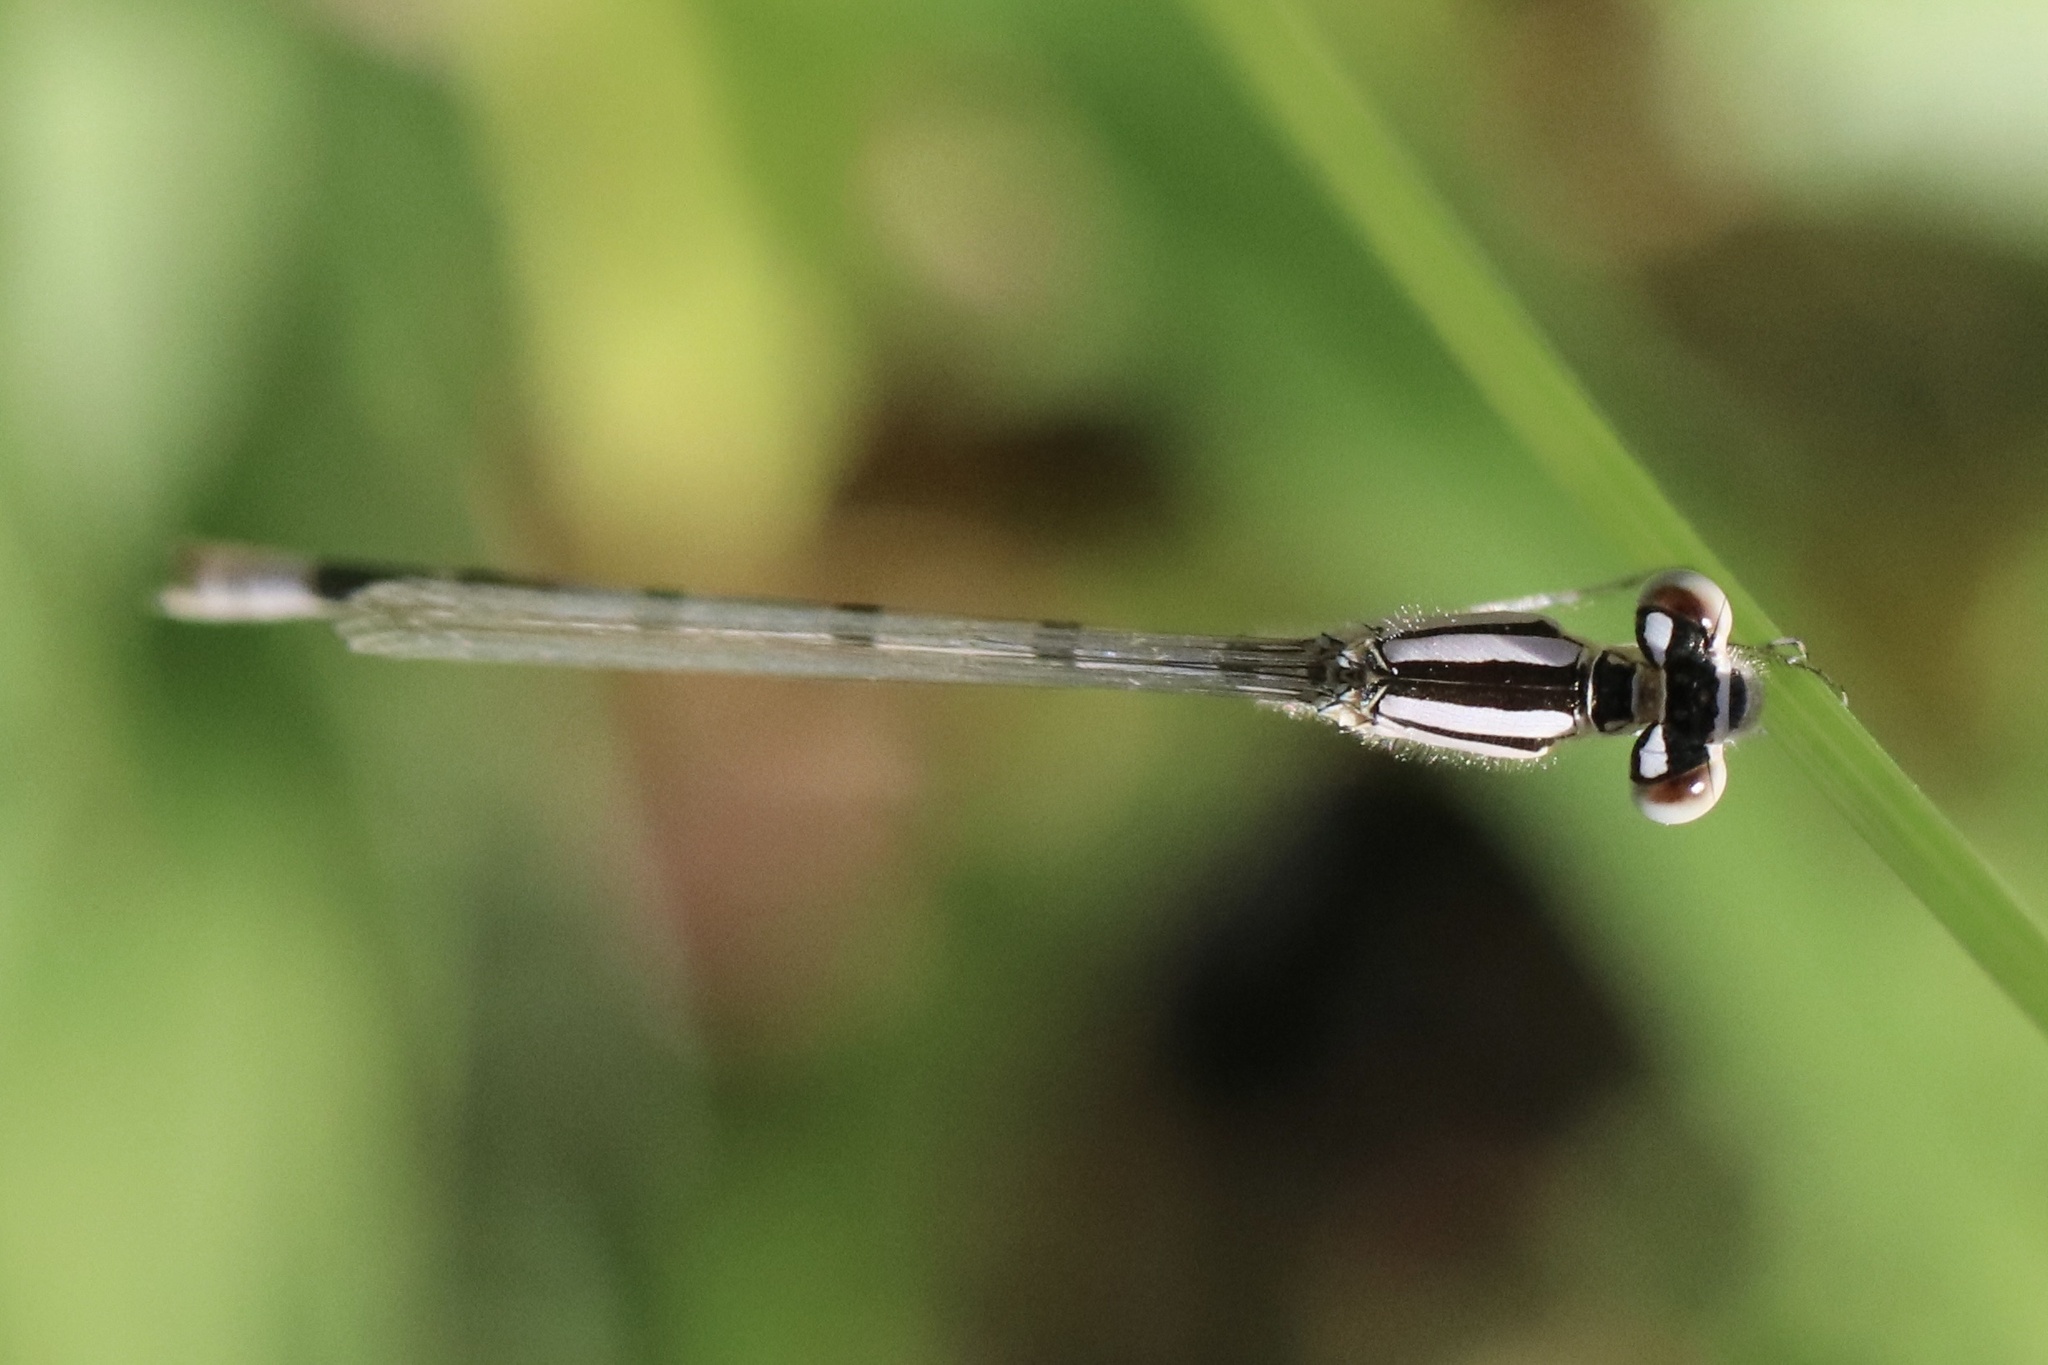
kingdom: Animalia
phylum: Arthropoda
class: Insecta
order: Odonata
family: Coenagrionidae
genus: Enallagma
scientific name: Enallagma civile
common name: Damselfly
